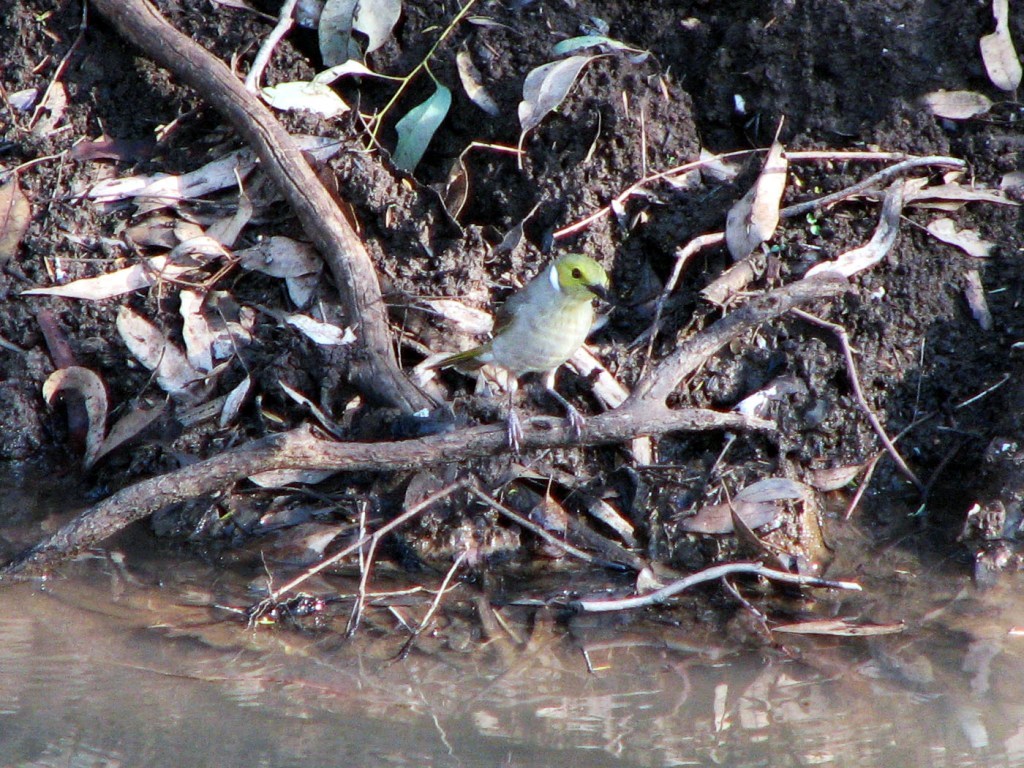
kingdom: Animalia
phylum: Chordata
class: Aves
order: Passeriformes
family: Meliphagidae
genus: Ptilotula
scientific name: Ptilotula penicillata
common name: White-plumed honeyeater
